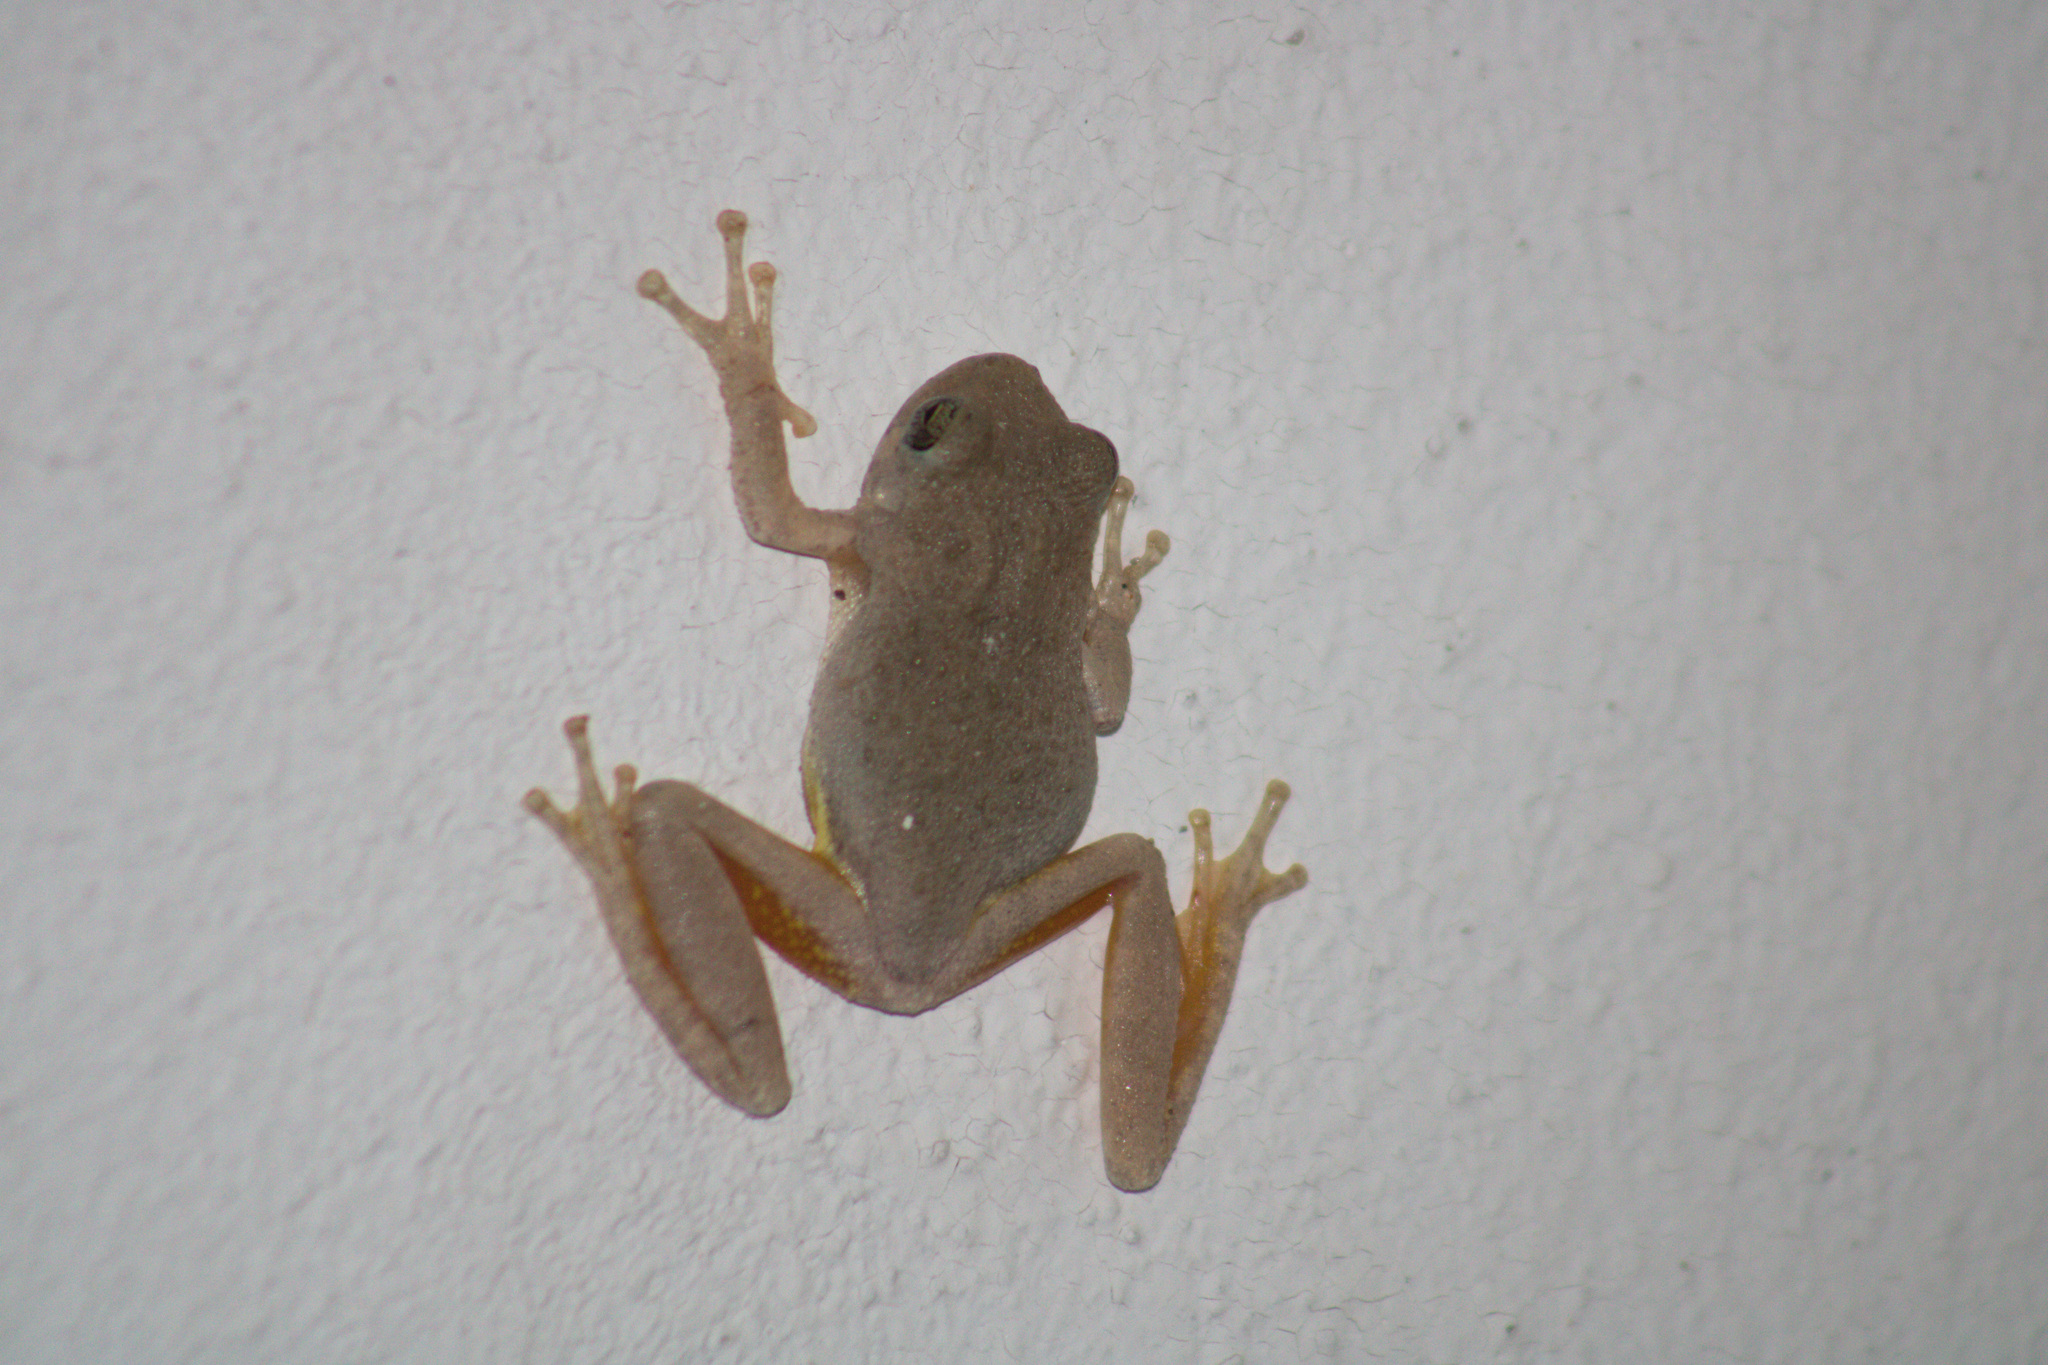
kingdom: Animalia
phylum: Chordata
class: Amphibia
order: Anura
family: Hylidae
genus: Dryophytes
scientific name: Dryophytes arenicolor
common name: Canyon treefrog
